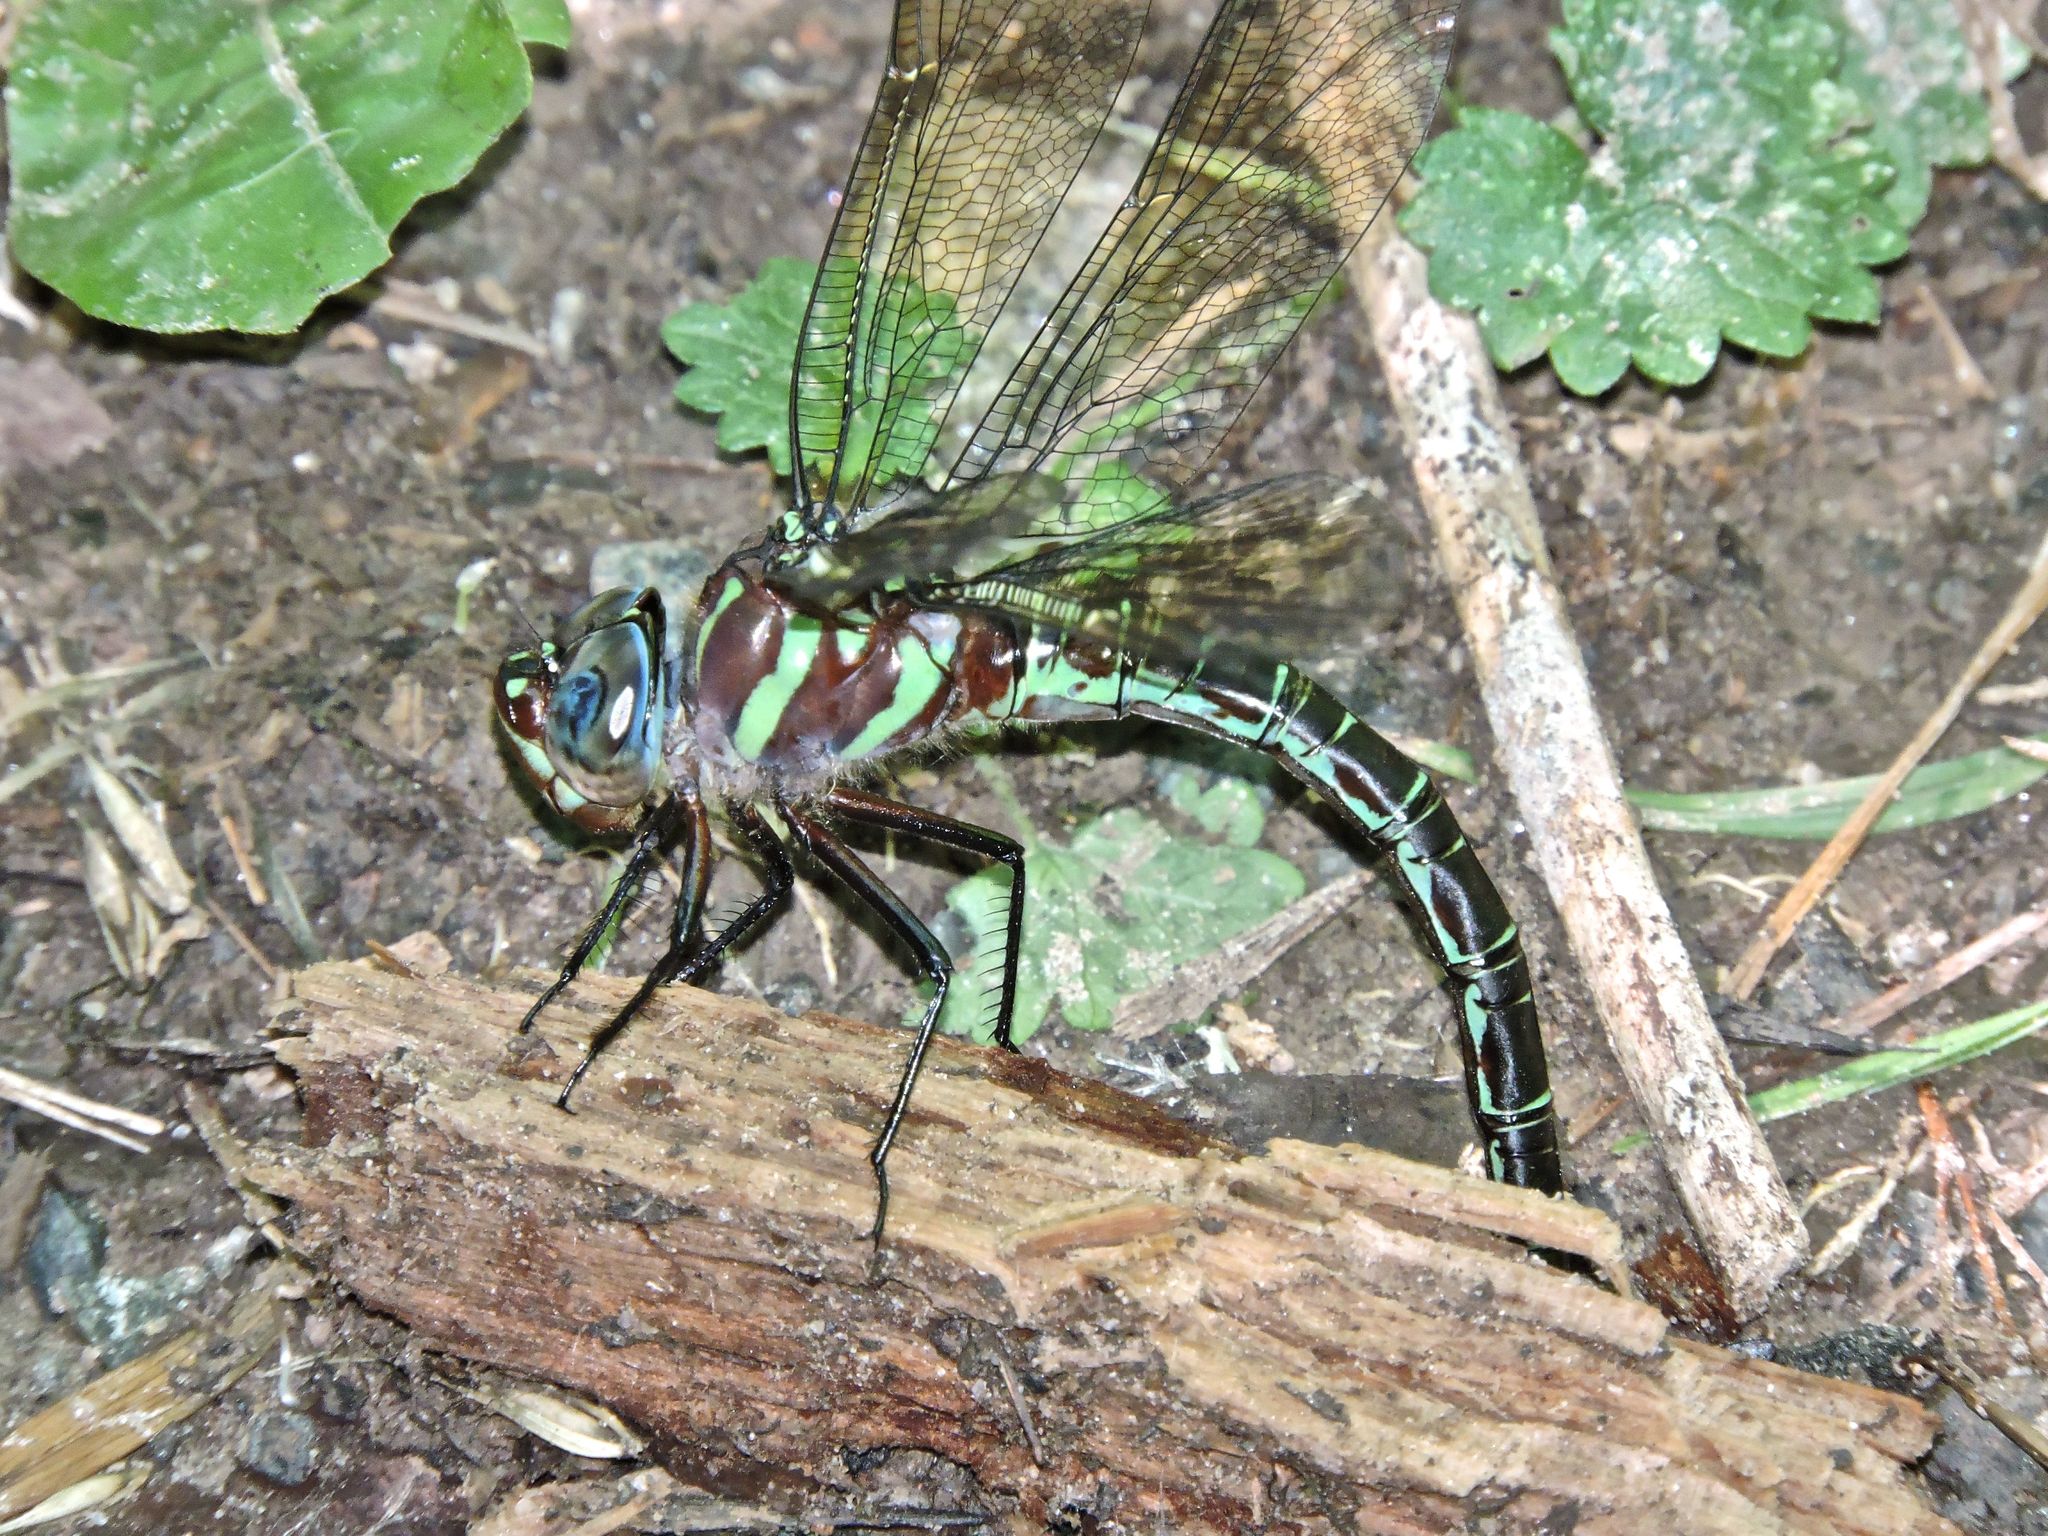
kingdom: Animalia
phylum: Arthropoda
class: Insecta
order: Odonata
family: Aeshnidae
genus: Epiaeschna
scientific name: Epiaeschna heros
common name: Swamp darner
